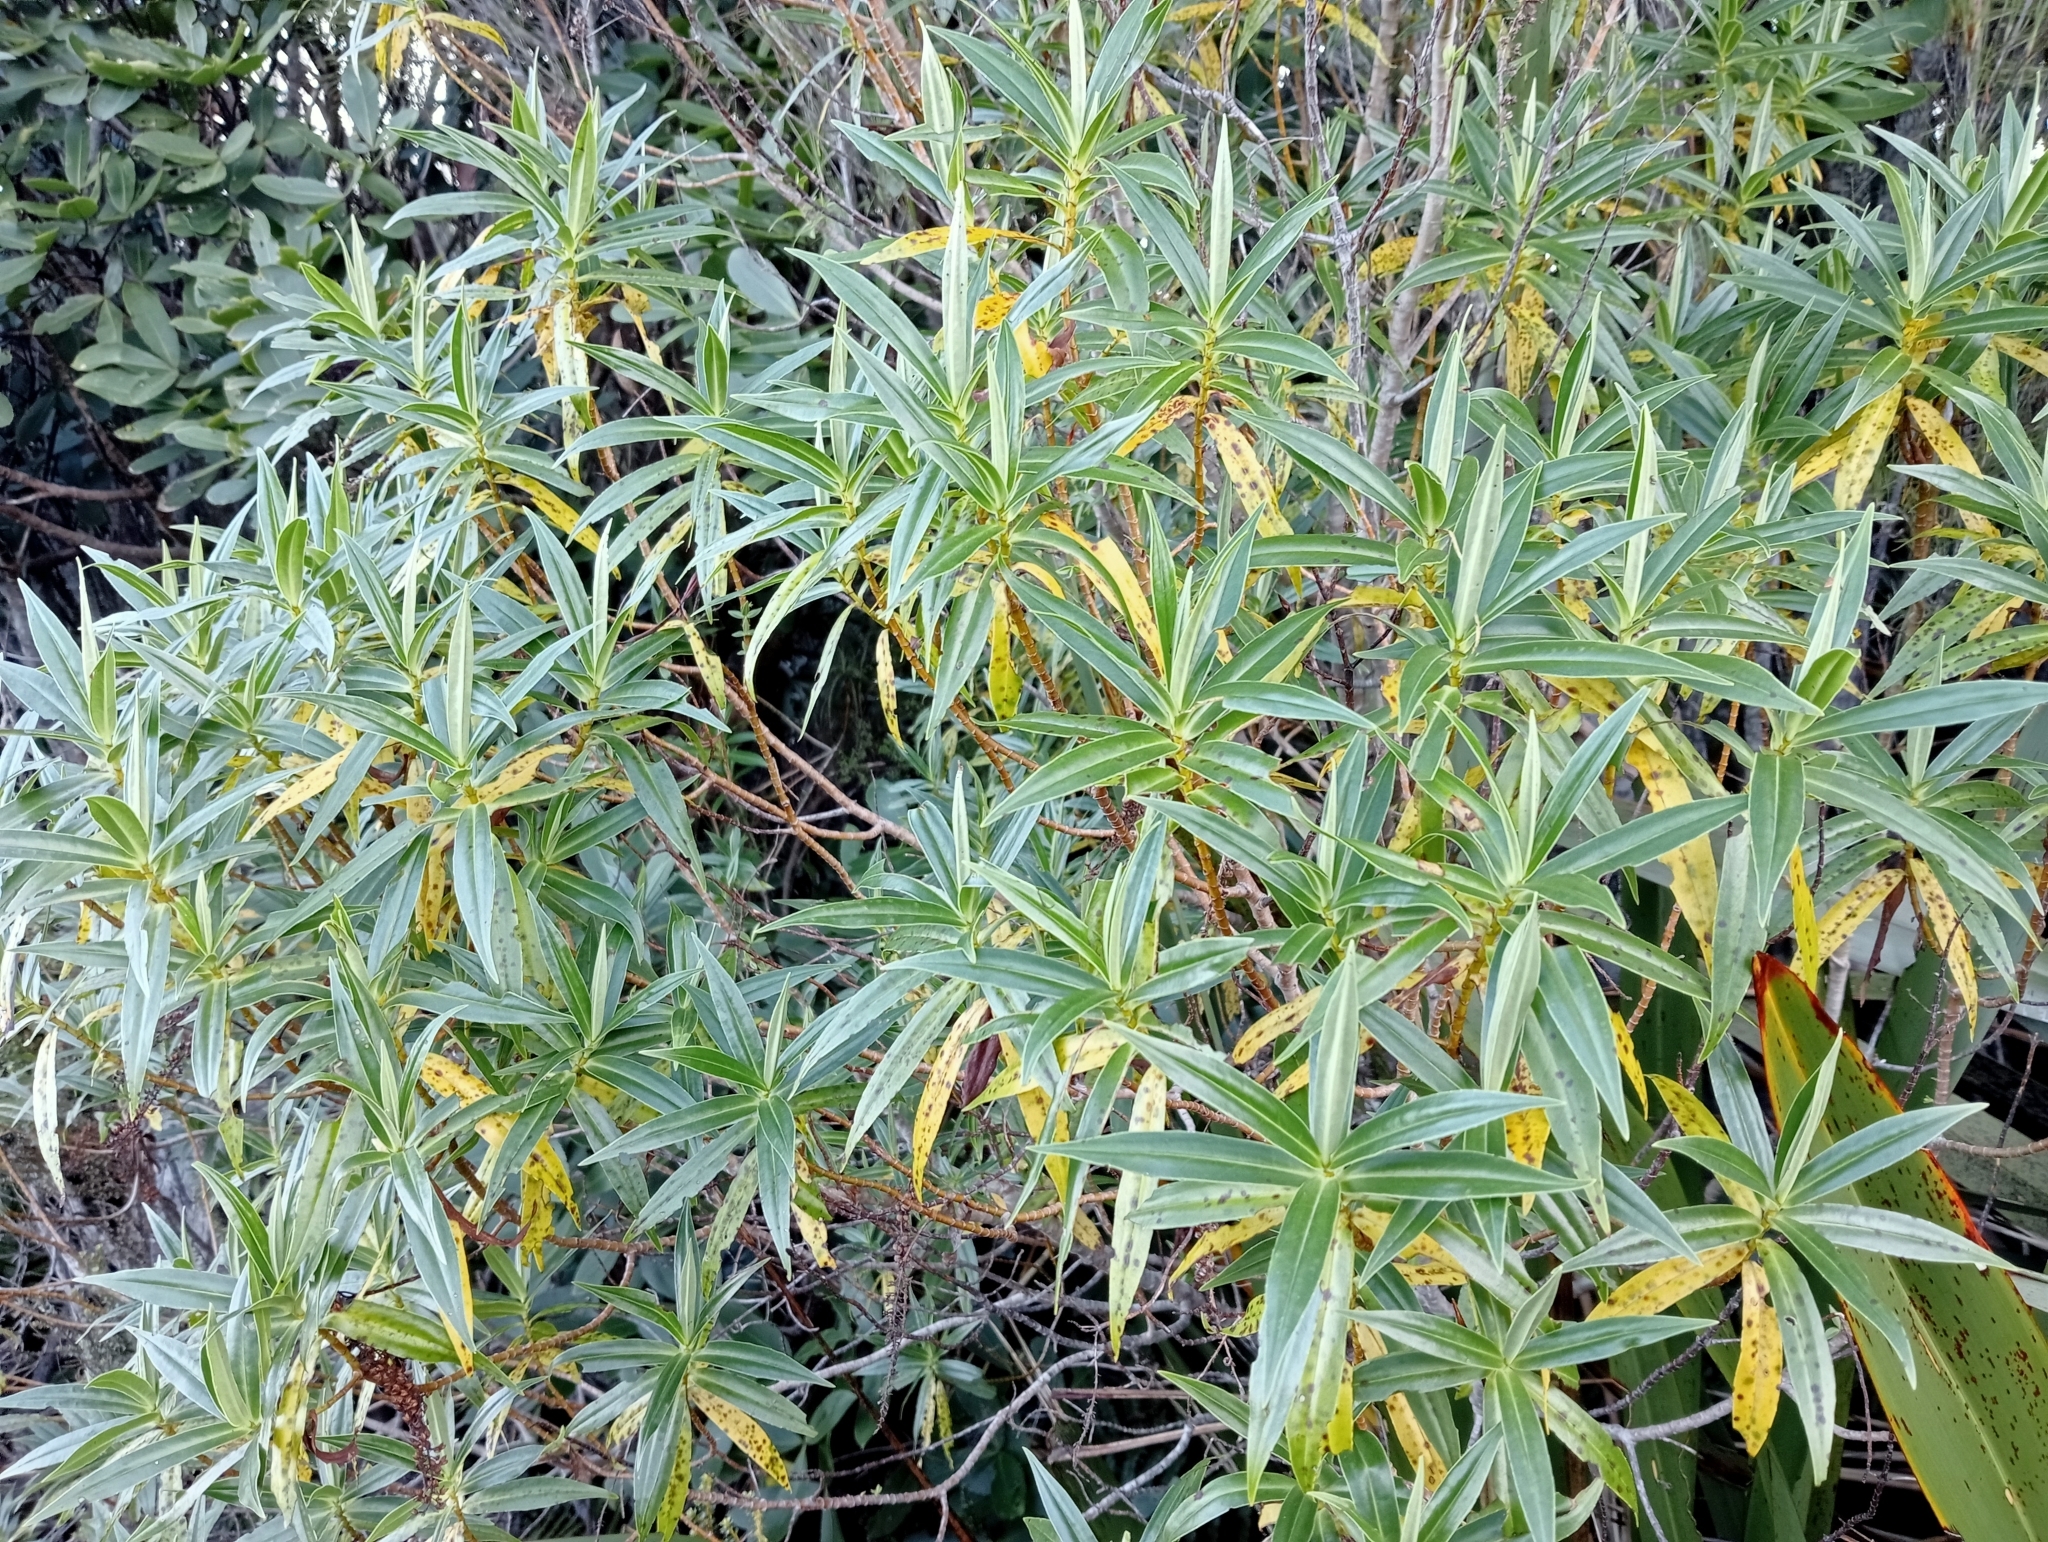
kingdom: Plantae
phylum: Tracheophyta
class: Magnoliopsida
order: Lamiales
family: Plantaginaceae
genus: Veronica
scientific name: Veronica salicifolia
